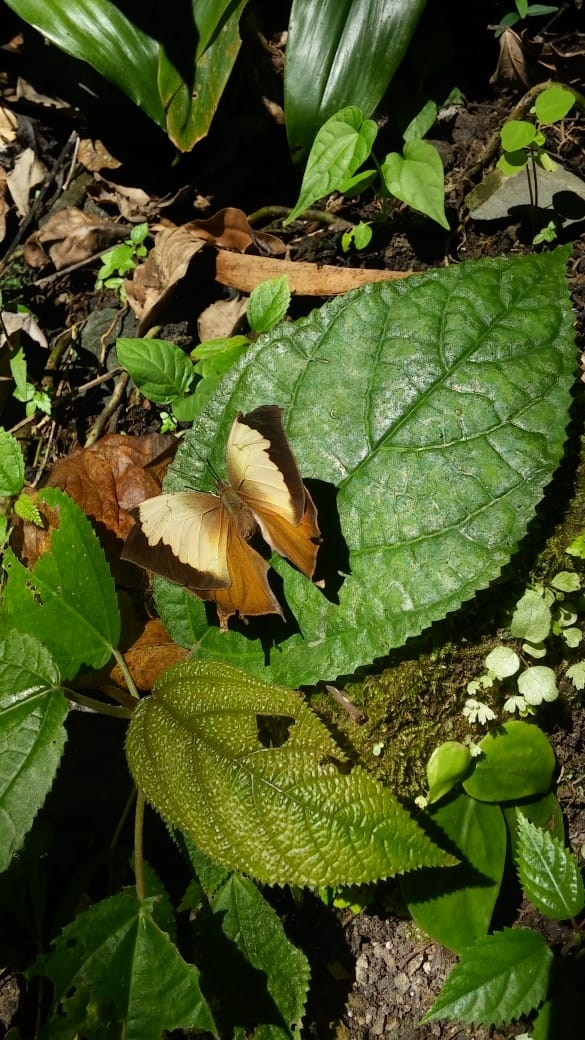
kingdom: Animalia
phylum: Arthropoda
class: Insecta
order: Lepidoptera
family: Nymphalidae
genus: Consul
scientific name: Consul electra
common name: Pearly leafwing
